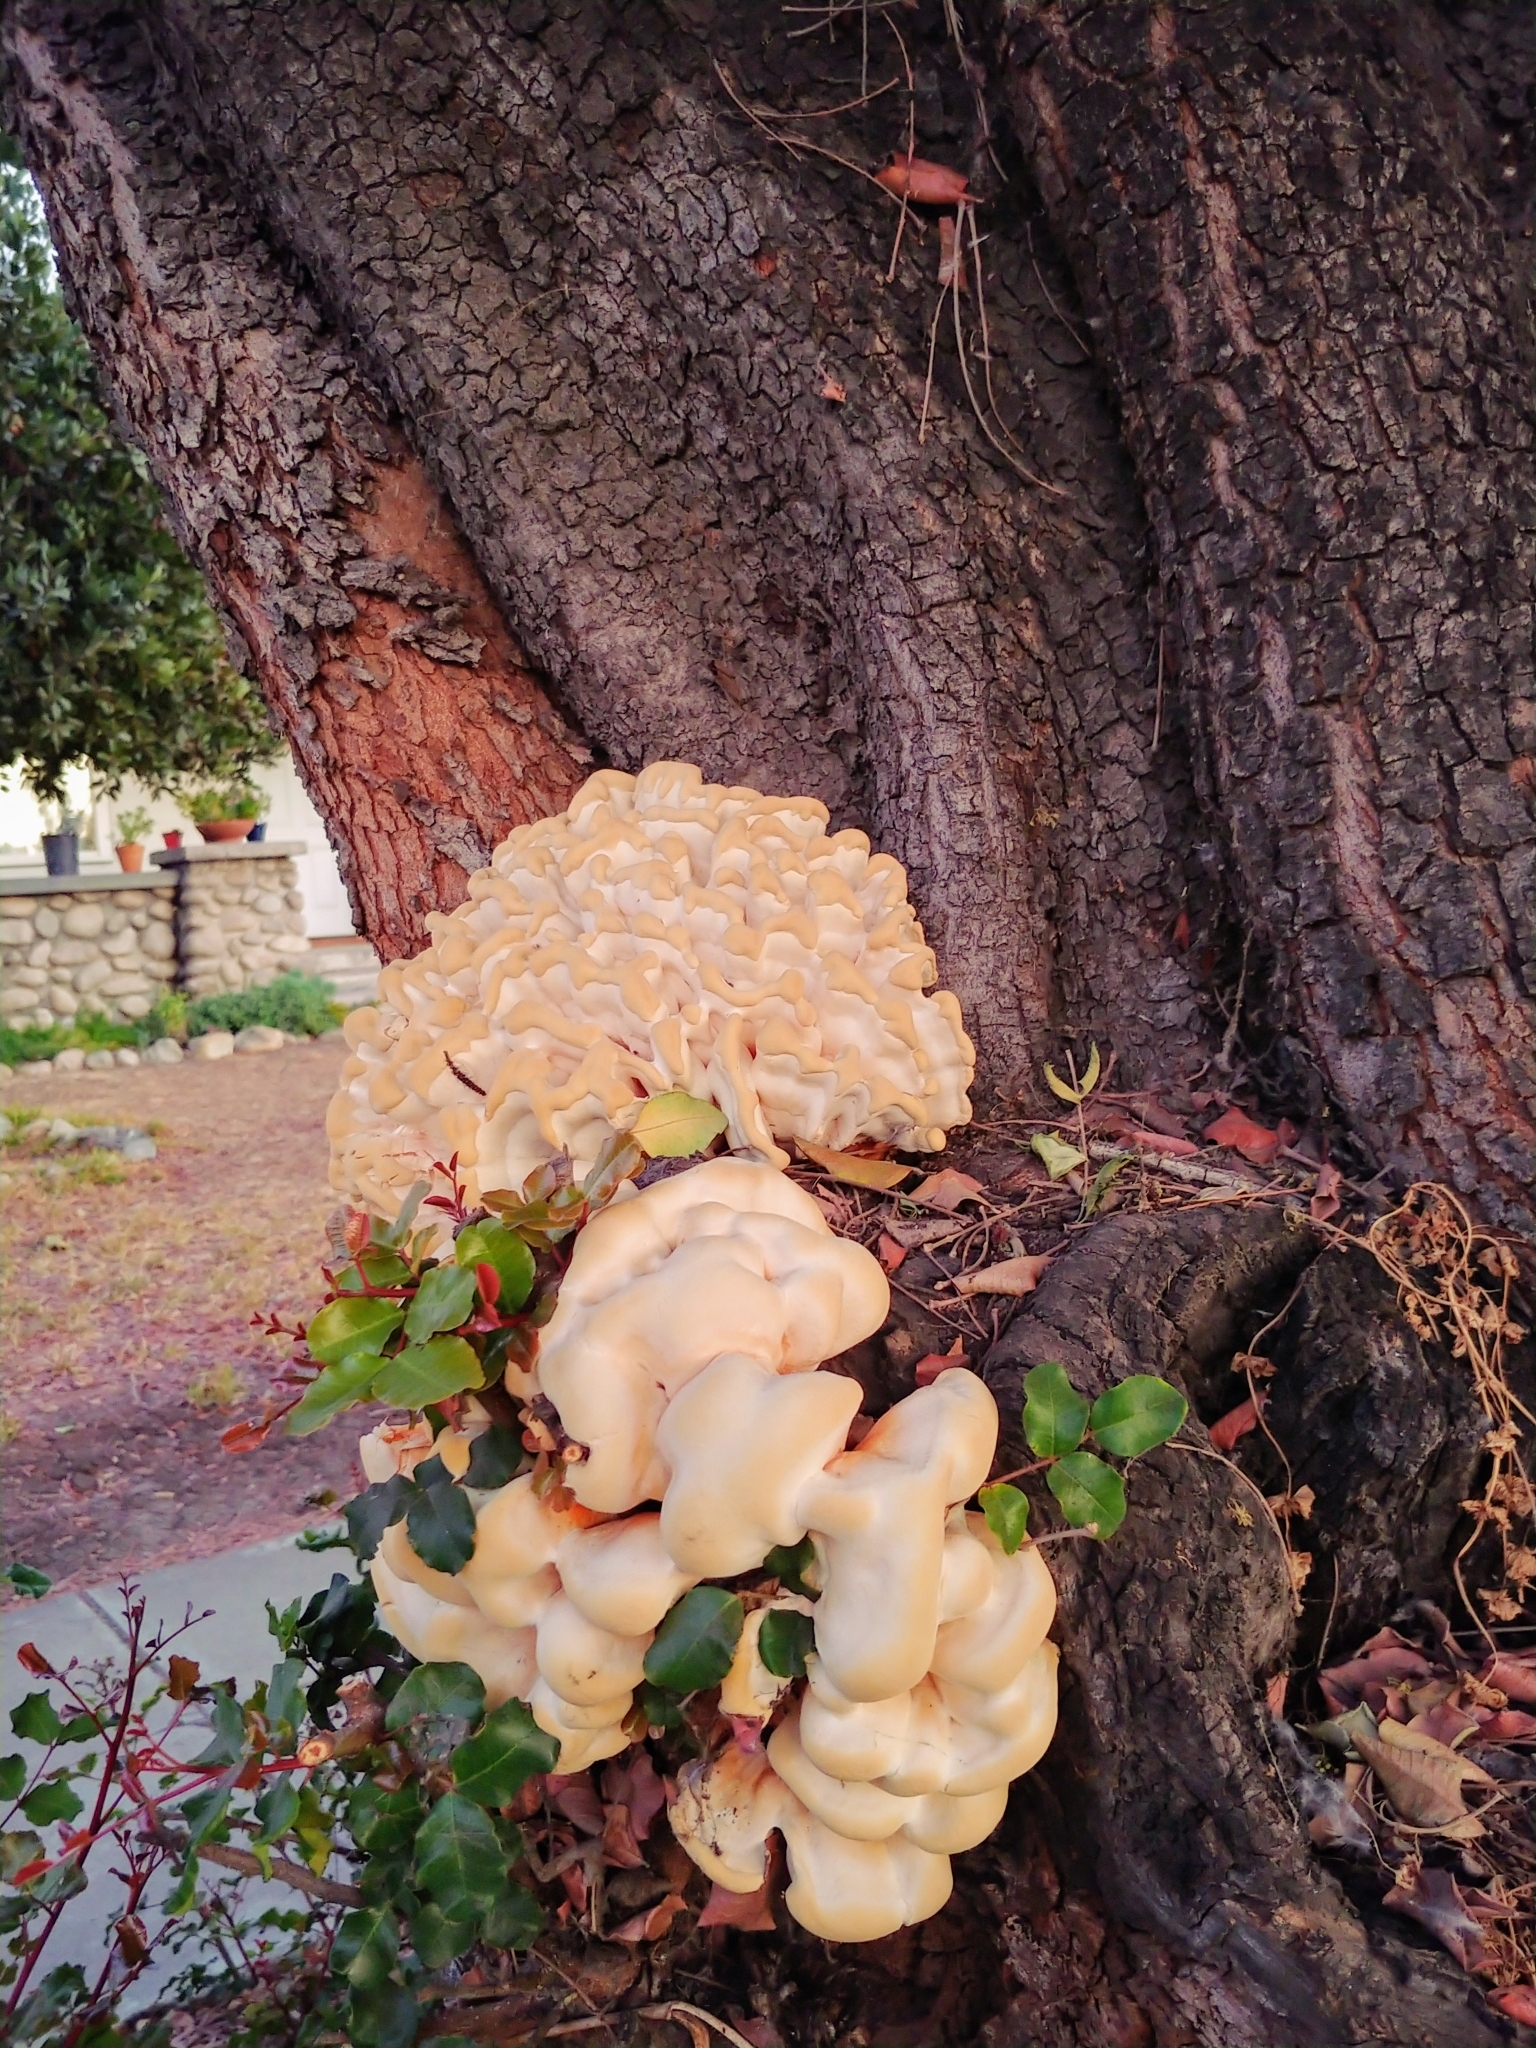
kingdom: Fungi
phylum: Basidiomycota
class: Agaricomycetes
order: Polyporales
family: Laetiporaceae
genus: Laetiporus
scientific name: Laetiporus gilbertsonii
